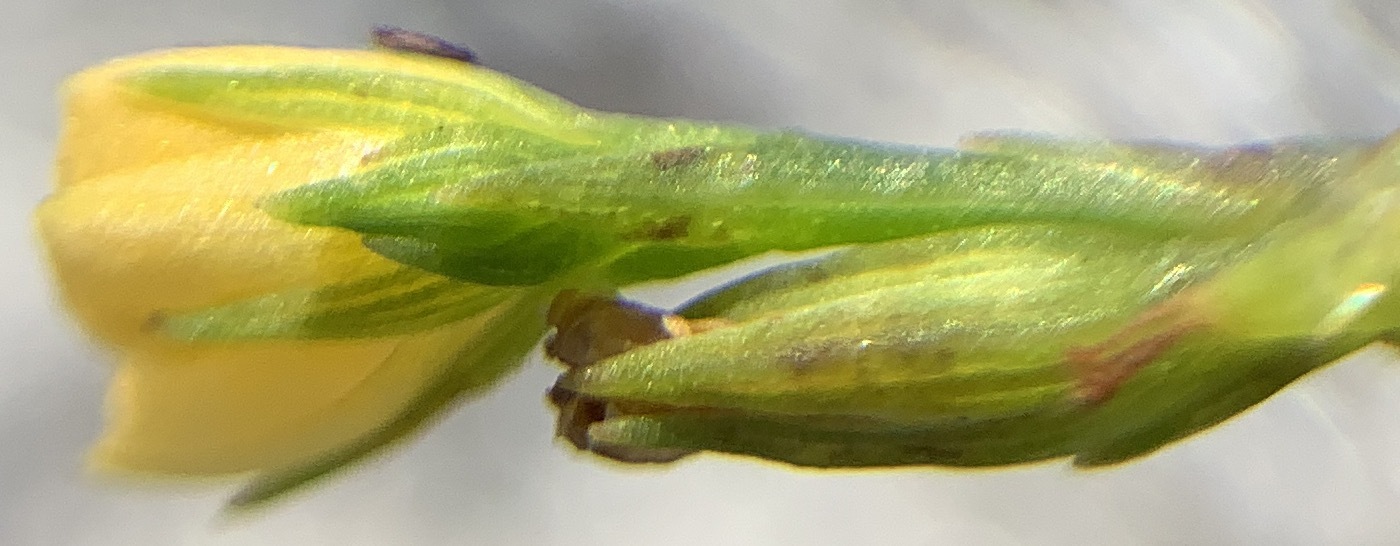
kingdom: Plantae
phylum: Tracheophyta
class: Magnoliopsida
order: Malpighiales
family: Hypericaceae
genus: Hypericum
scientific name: Hypericum gentianoides
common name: Gentian-leaved st. john's-wort
